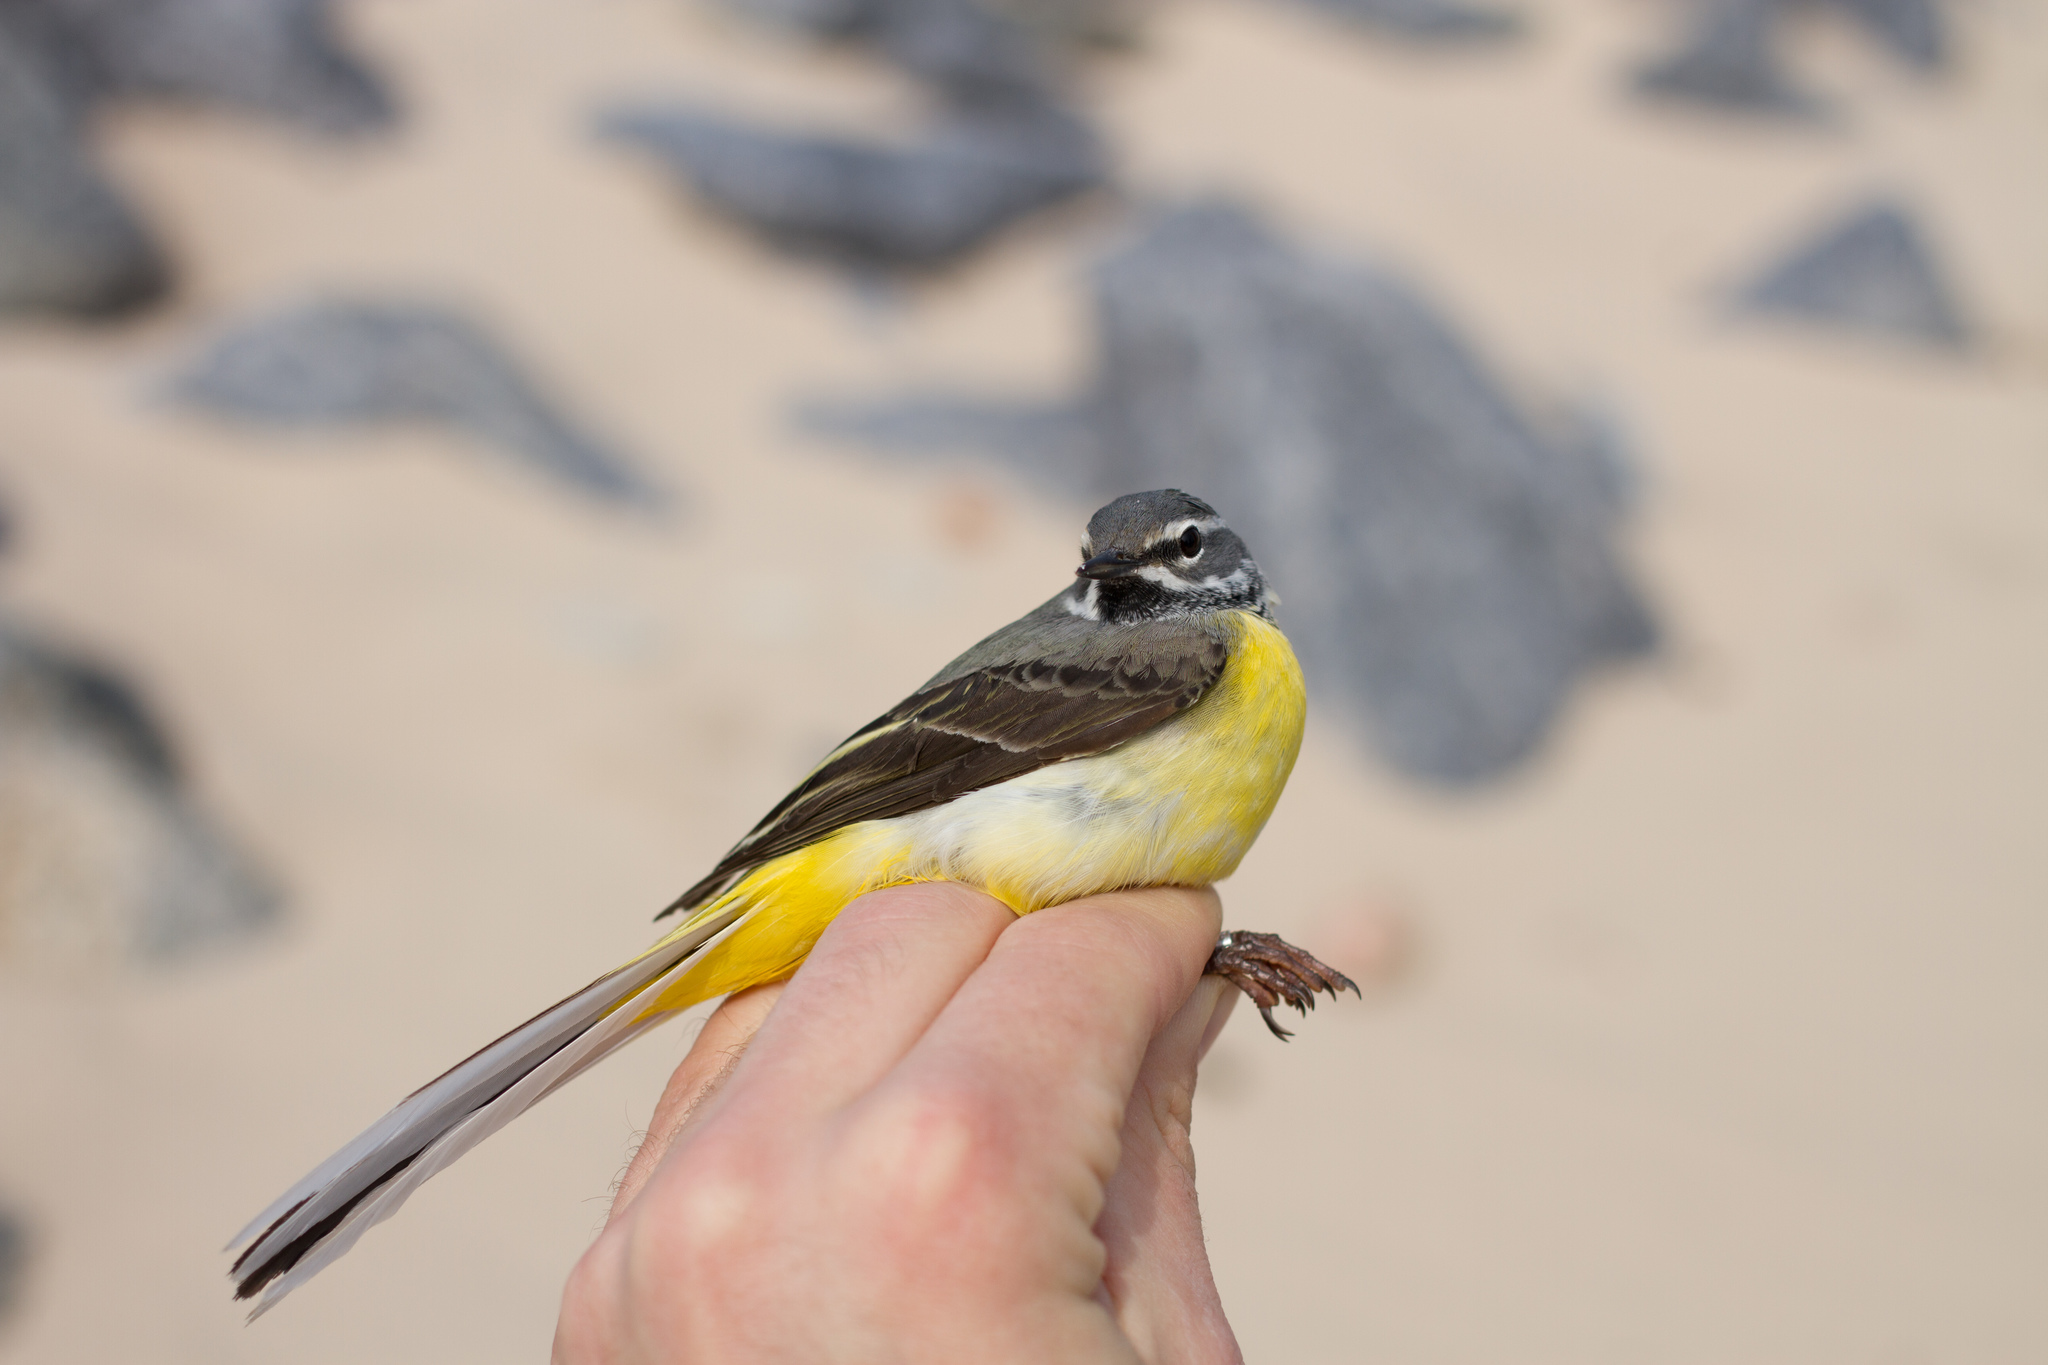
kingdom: Animalia
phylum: Chordata
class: Aves
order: Passeriformes
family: Motacillidae
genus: Motacilla
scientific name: Motacilla cinerea
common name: Grey wagtail
